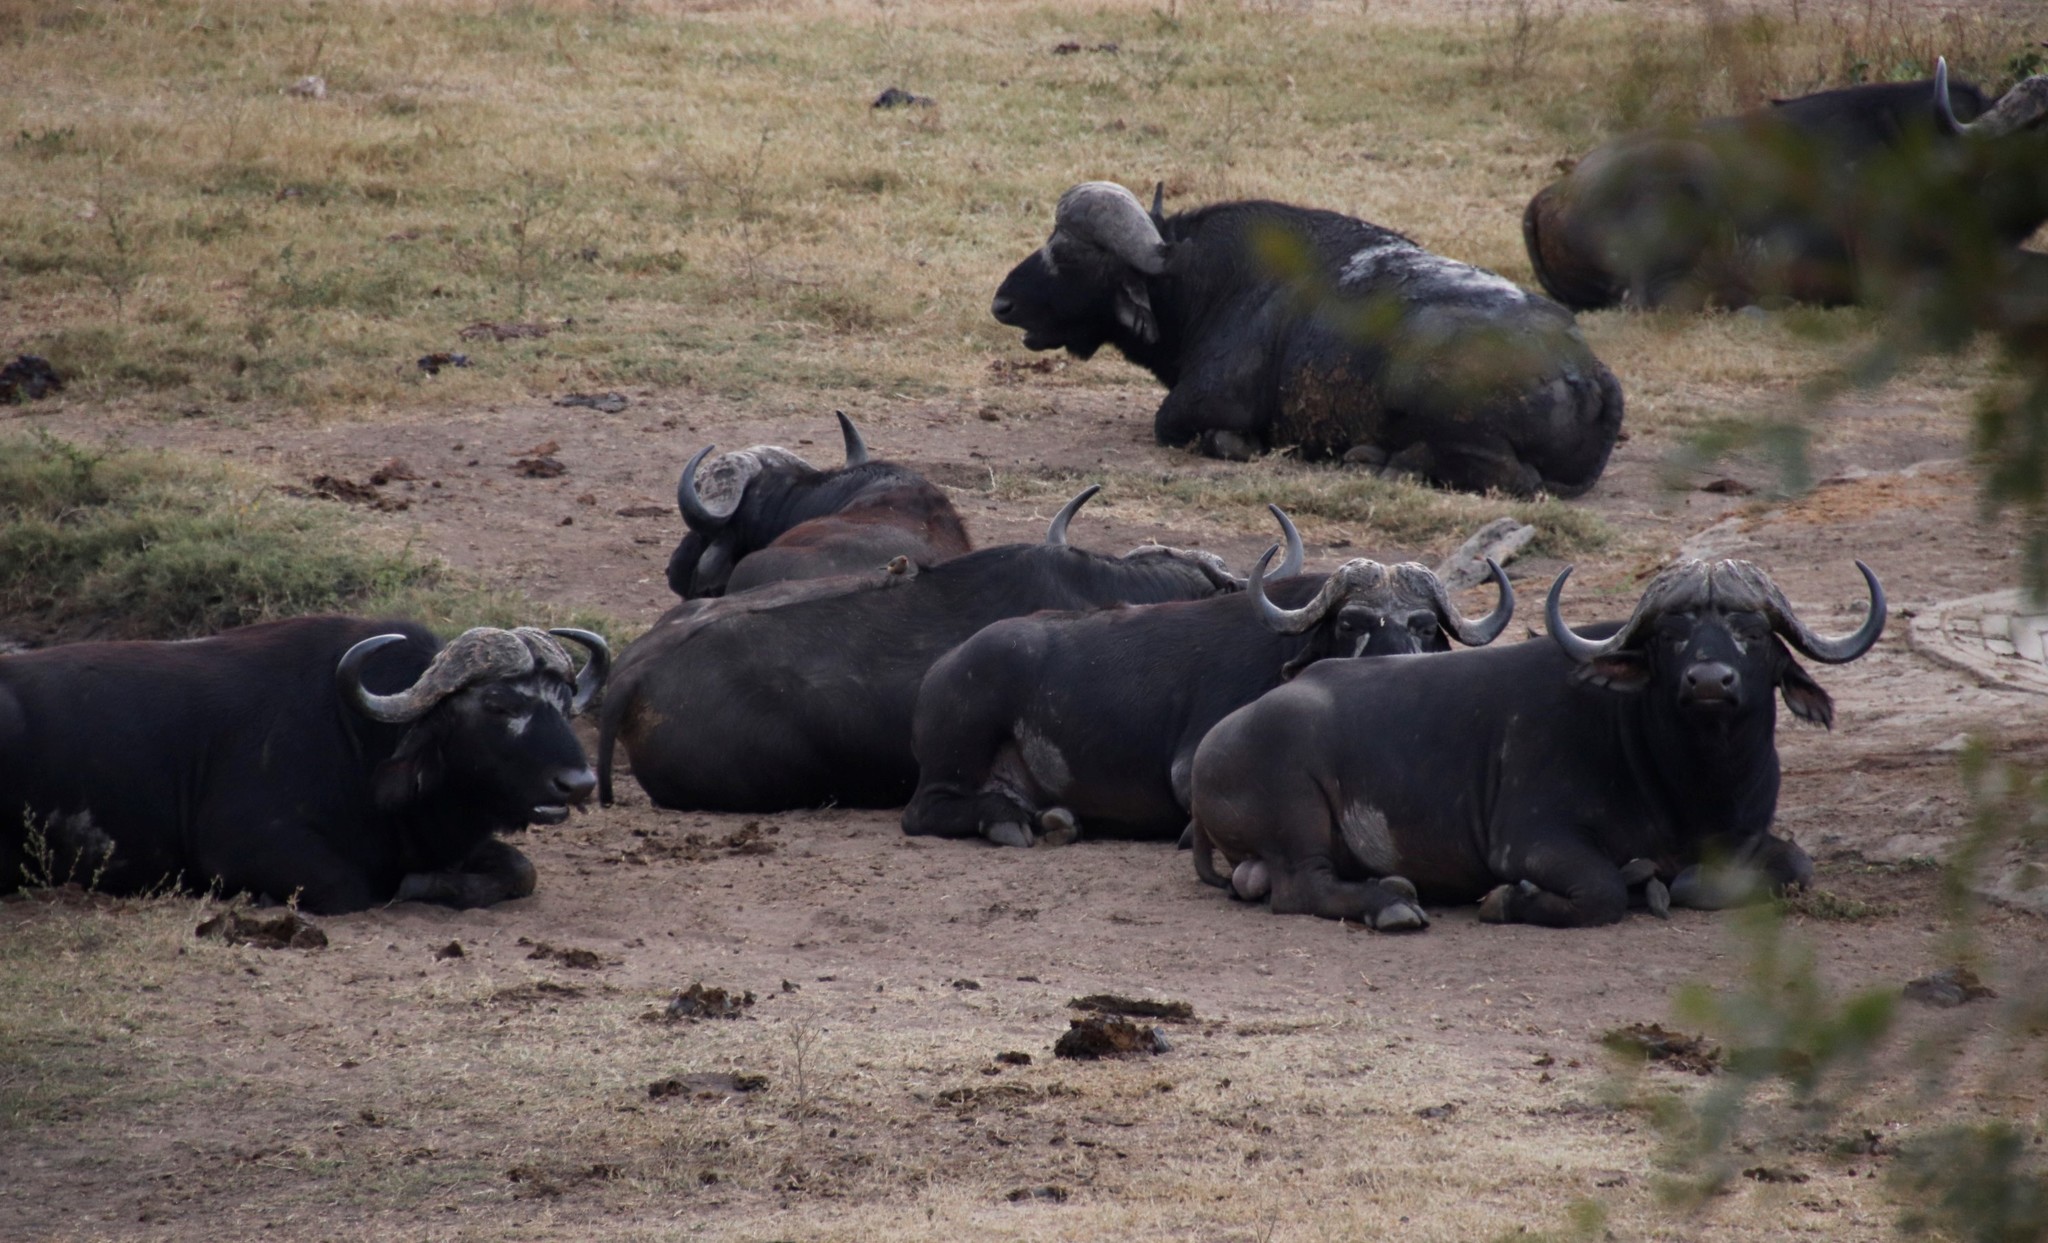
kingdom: Animalia
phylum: Chordata
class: Mammalia
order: Artiodactyla
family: Bovidae
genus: Syncerus
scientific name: Syncerus caffer
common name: African buffalo
